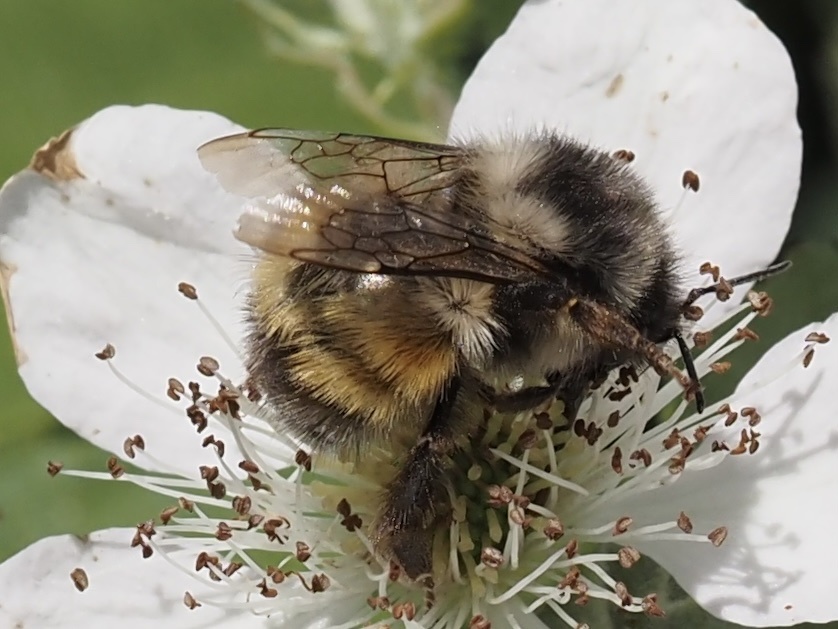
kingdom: Animalia
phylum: Arthropoda
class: Insecta
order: Hymenoptera
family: Apidae
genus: Bombus
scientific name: Bombus melanopygus
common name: Black tail bumble bee
